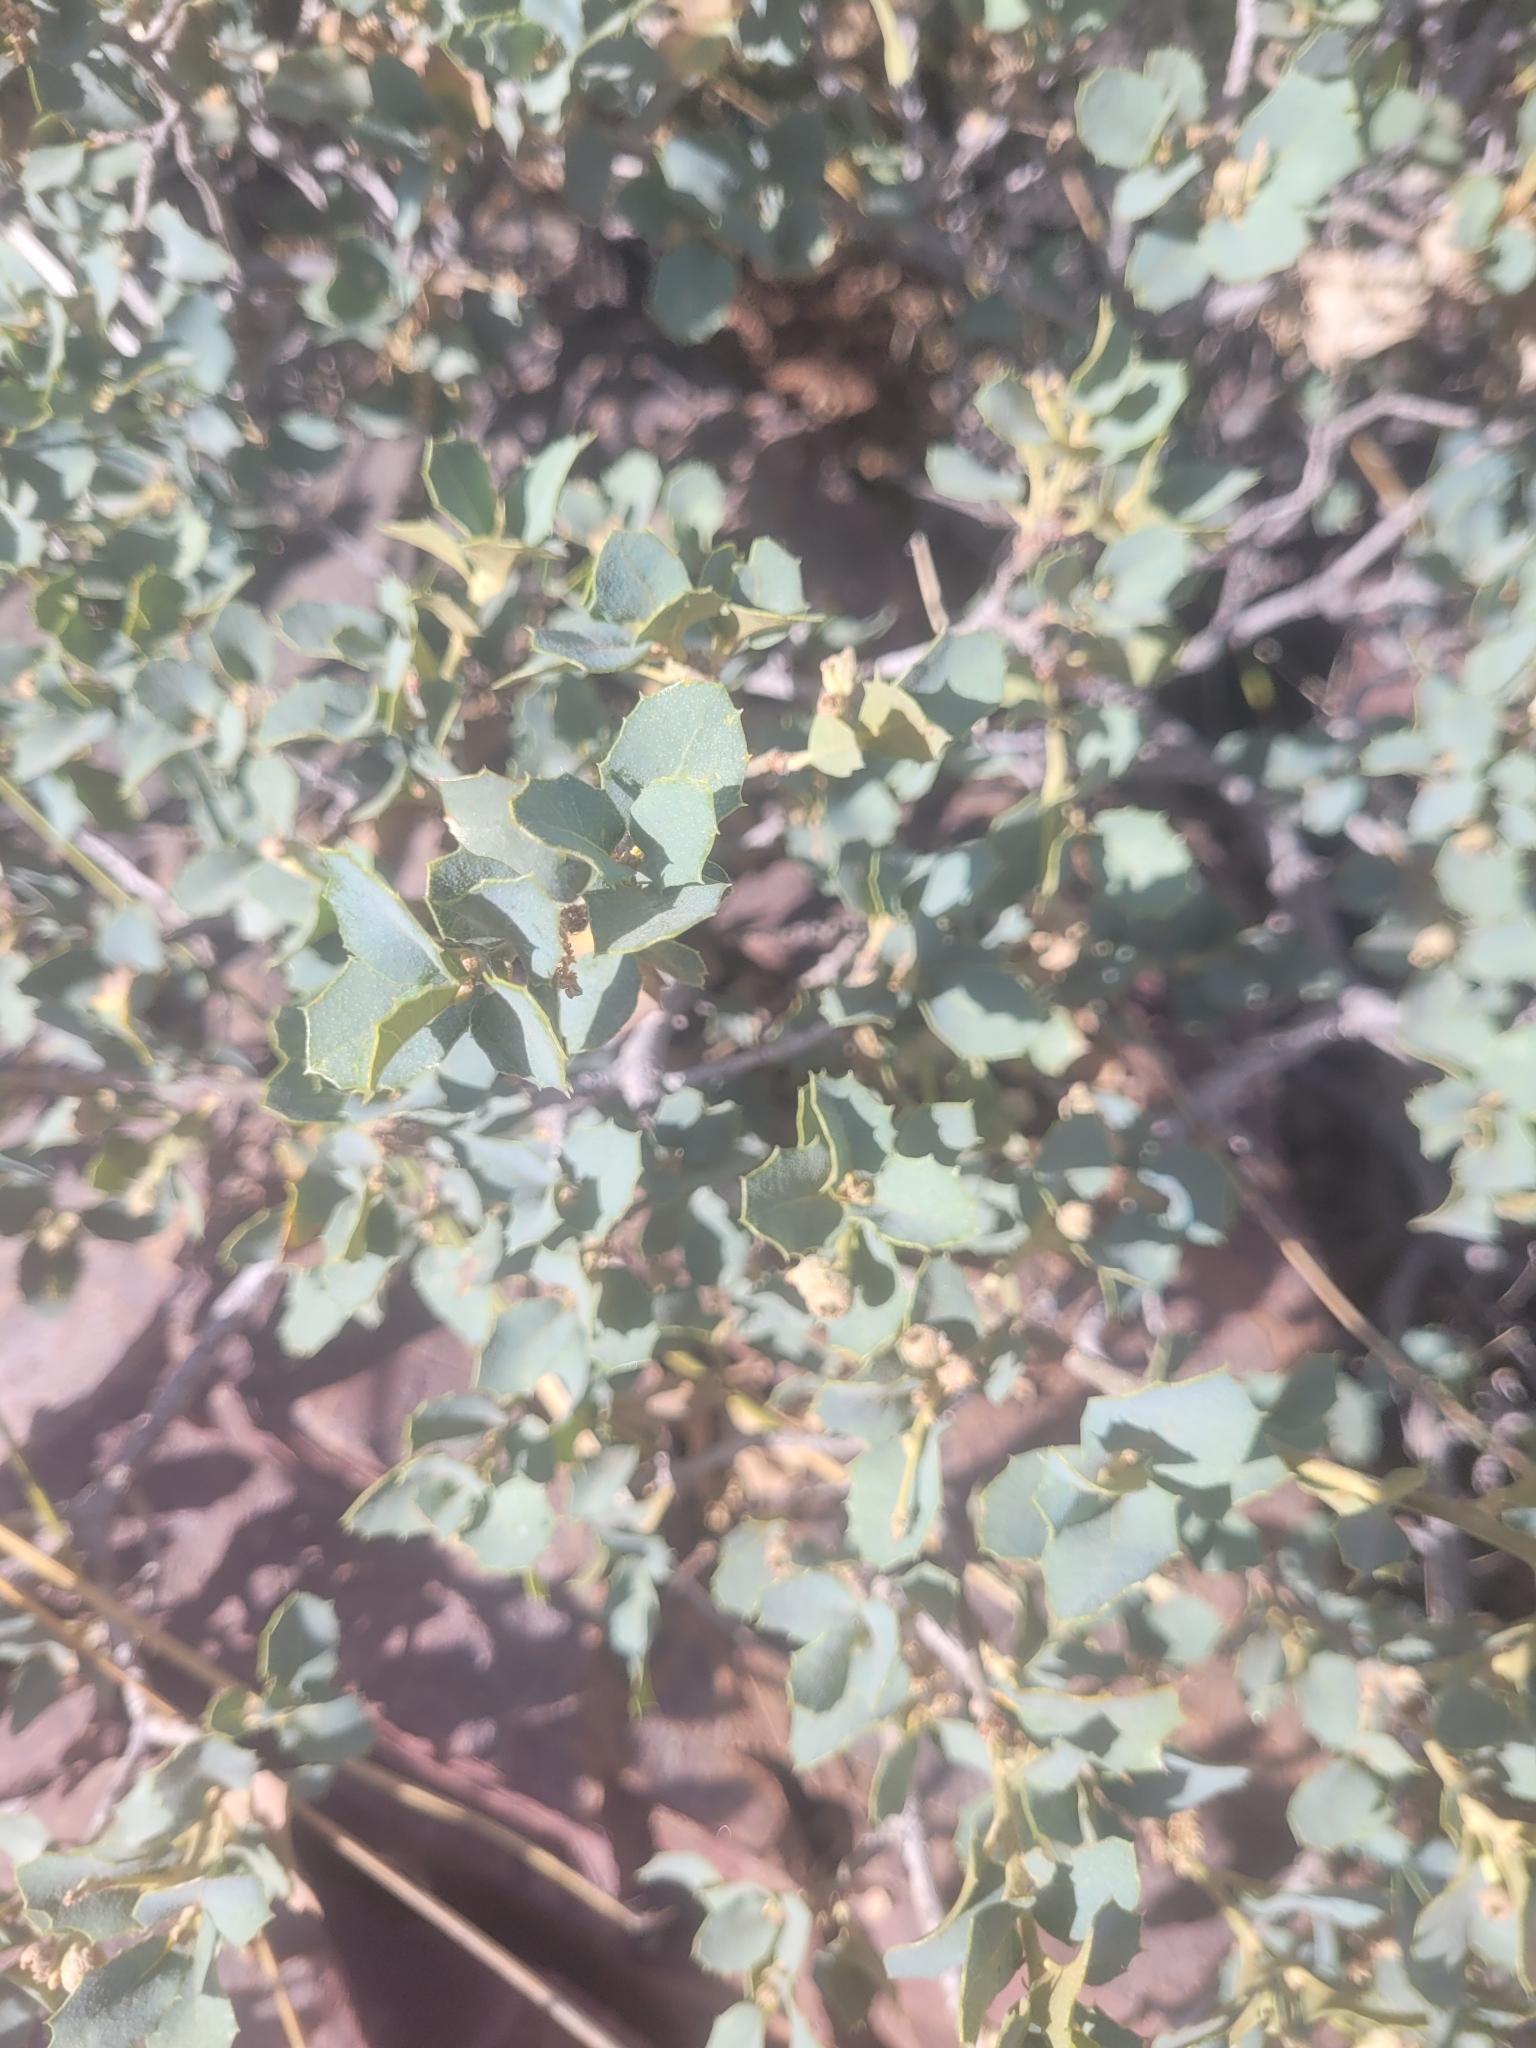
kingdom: Plantae
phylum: Tracheophyta
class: Magnoliopsida
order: Fagales
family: Fagaceae
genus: Quercus
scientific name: Quercus turbinella
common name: Sonoran scrub oak
